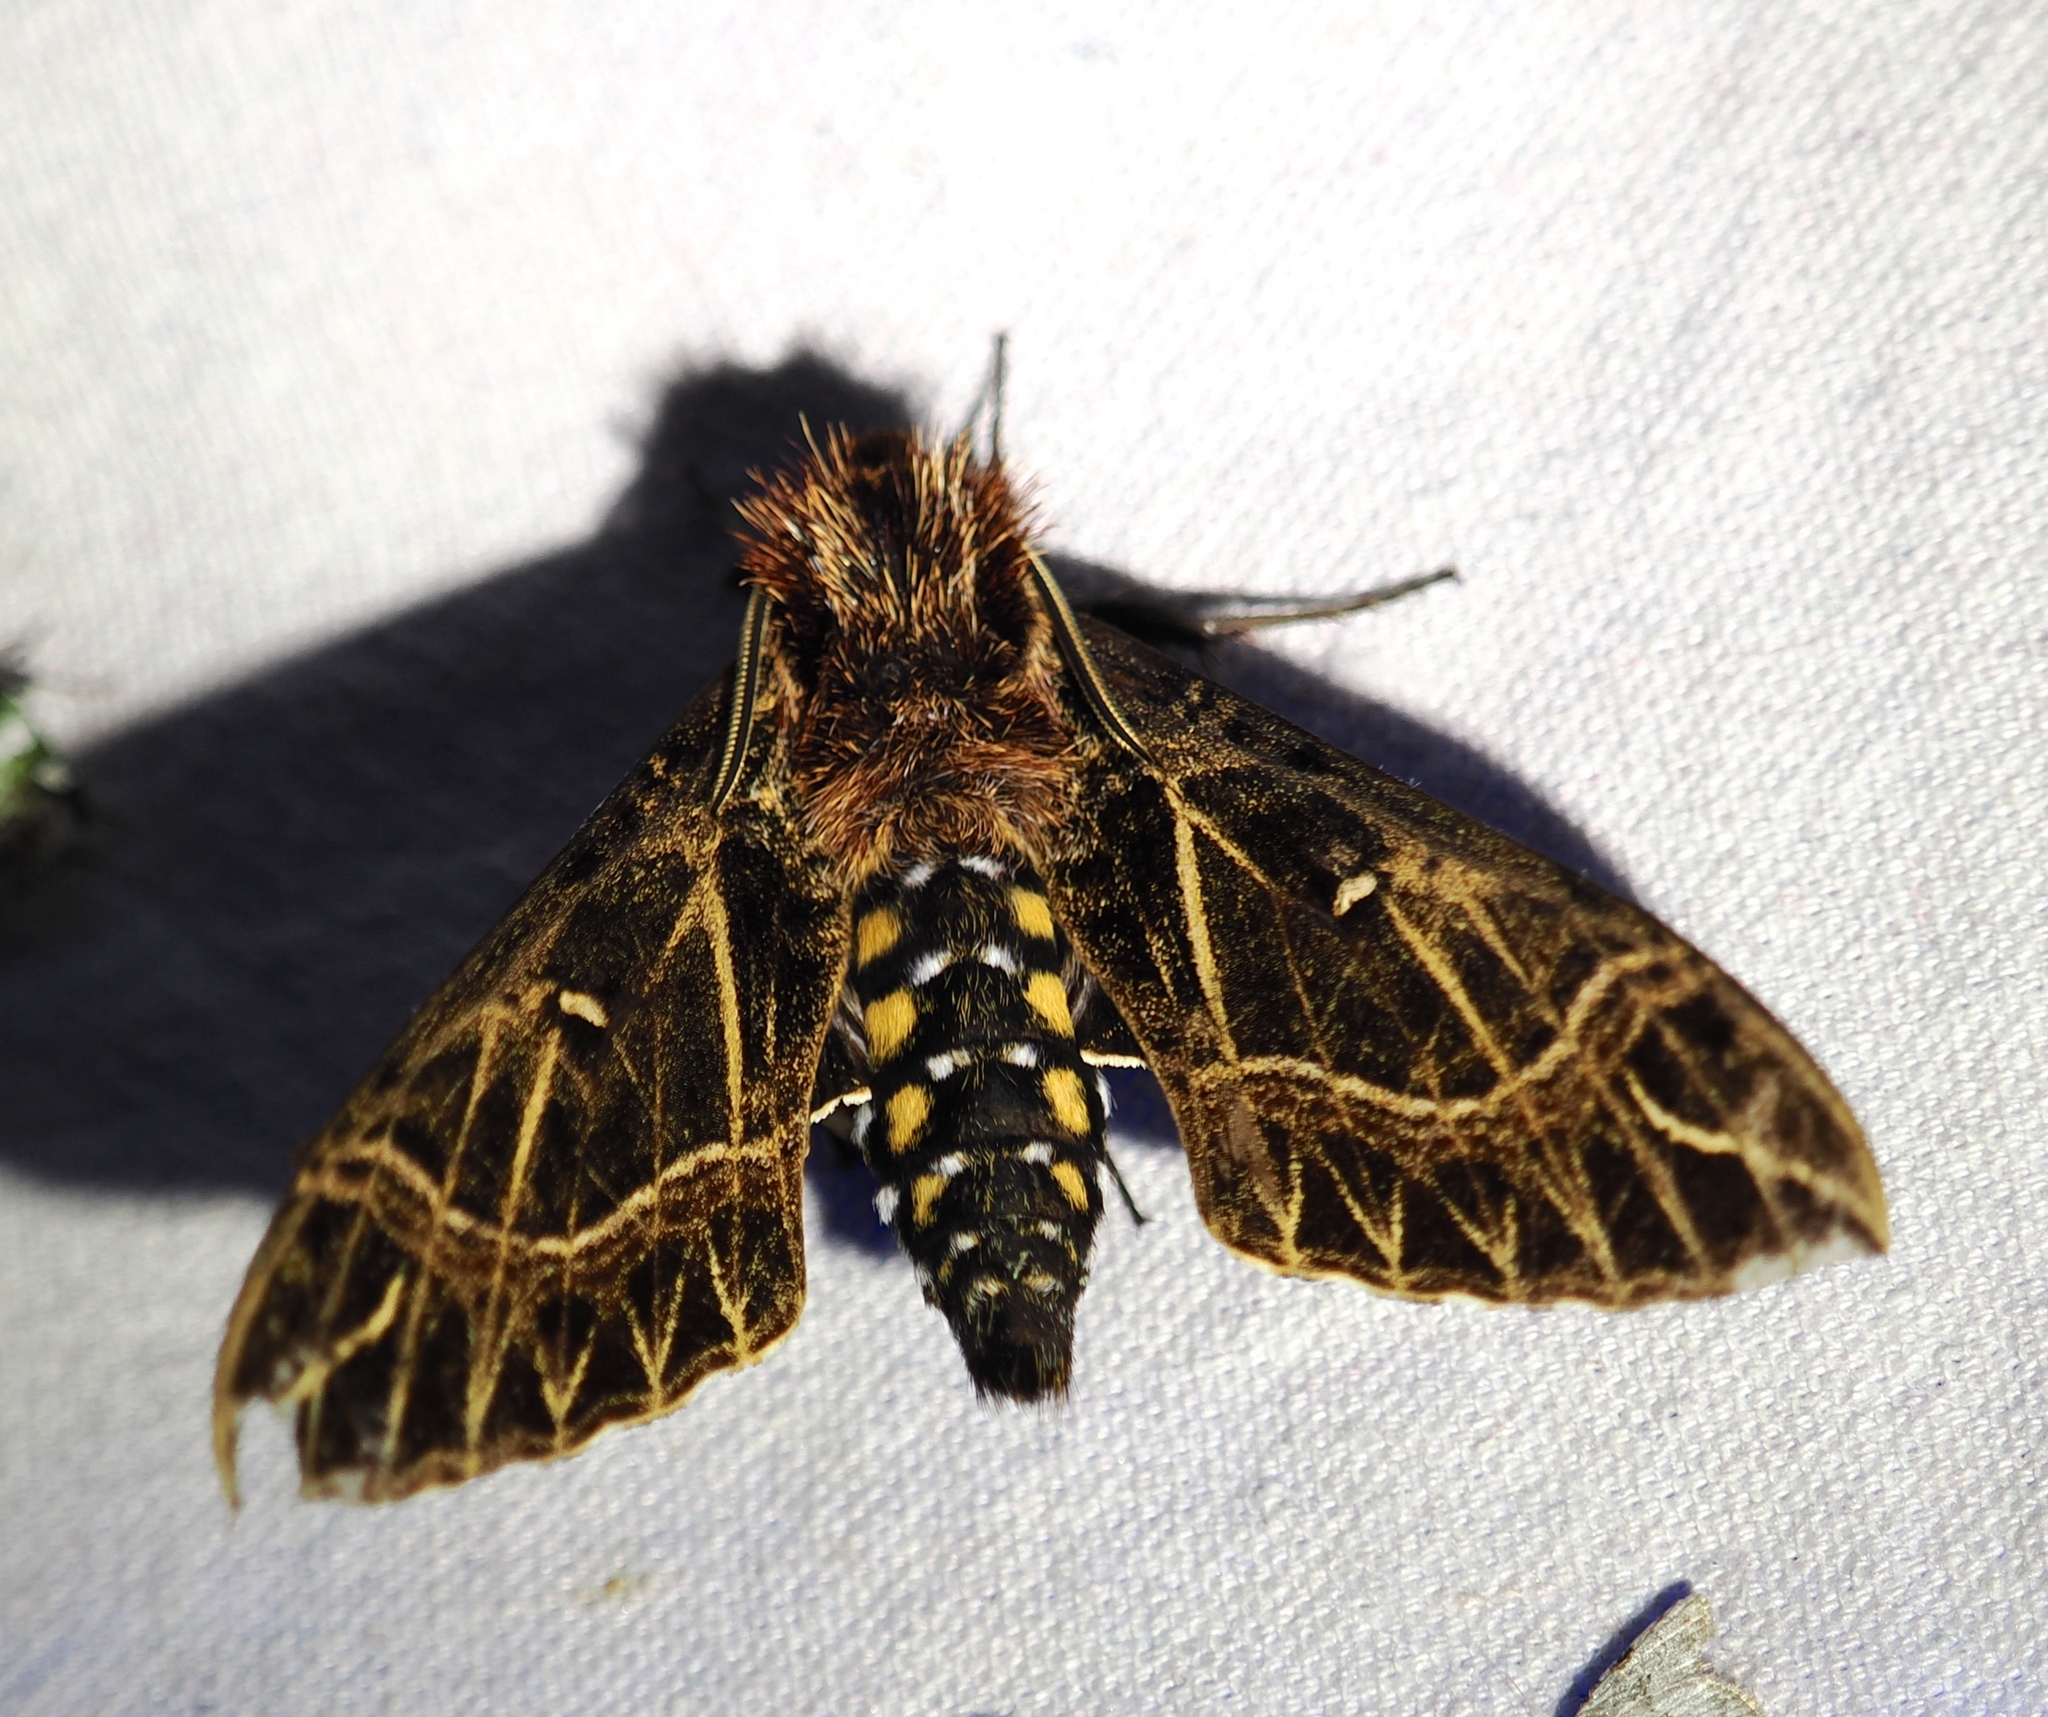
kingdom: Animalia
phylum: Arthropoda
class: Insecta
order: Lepidoptera
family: Sphingidae
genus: Euryglottis
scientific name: Euryglottis aper
